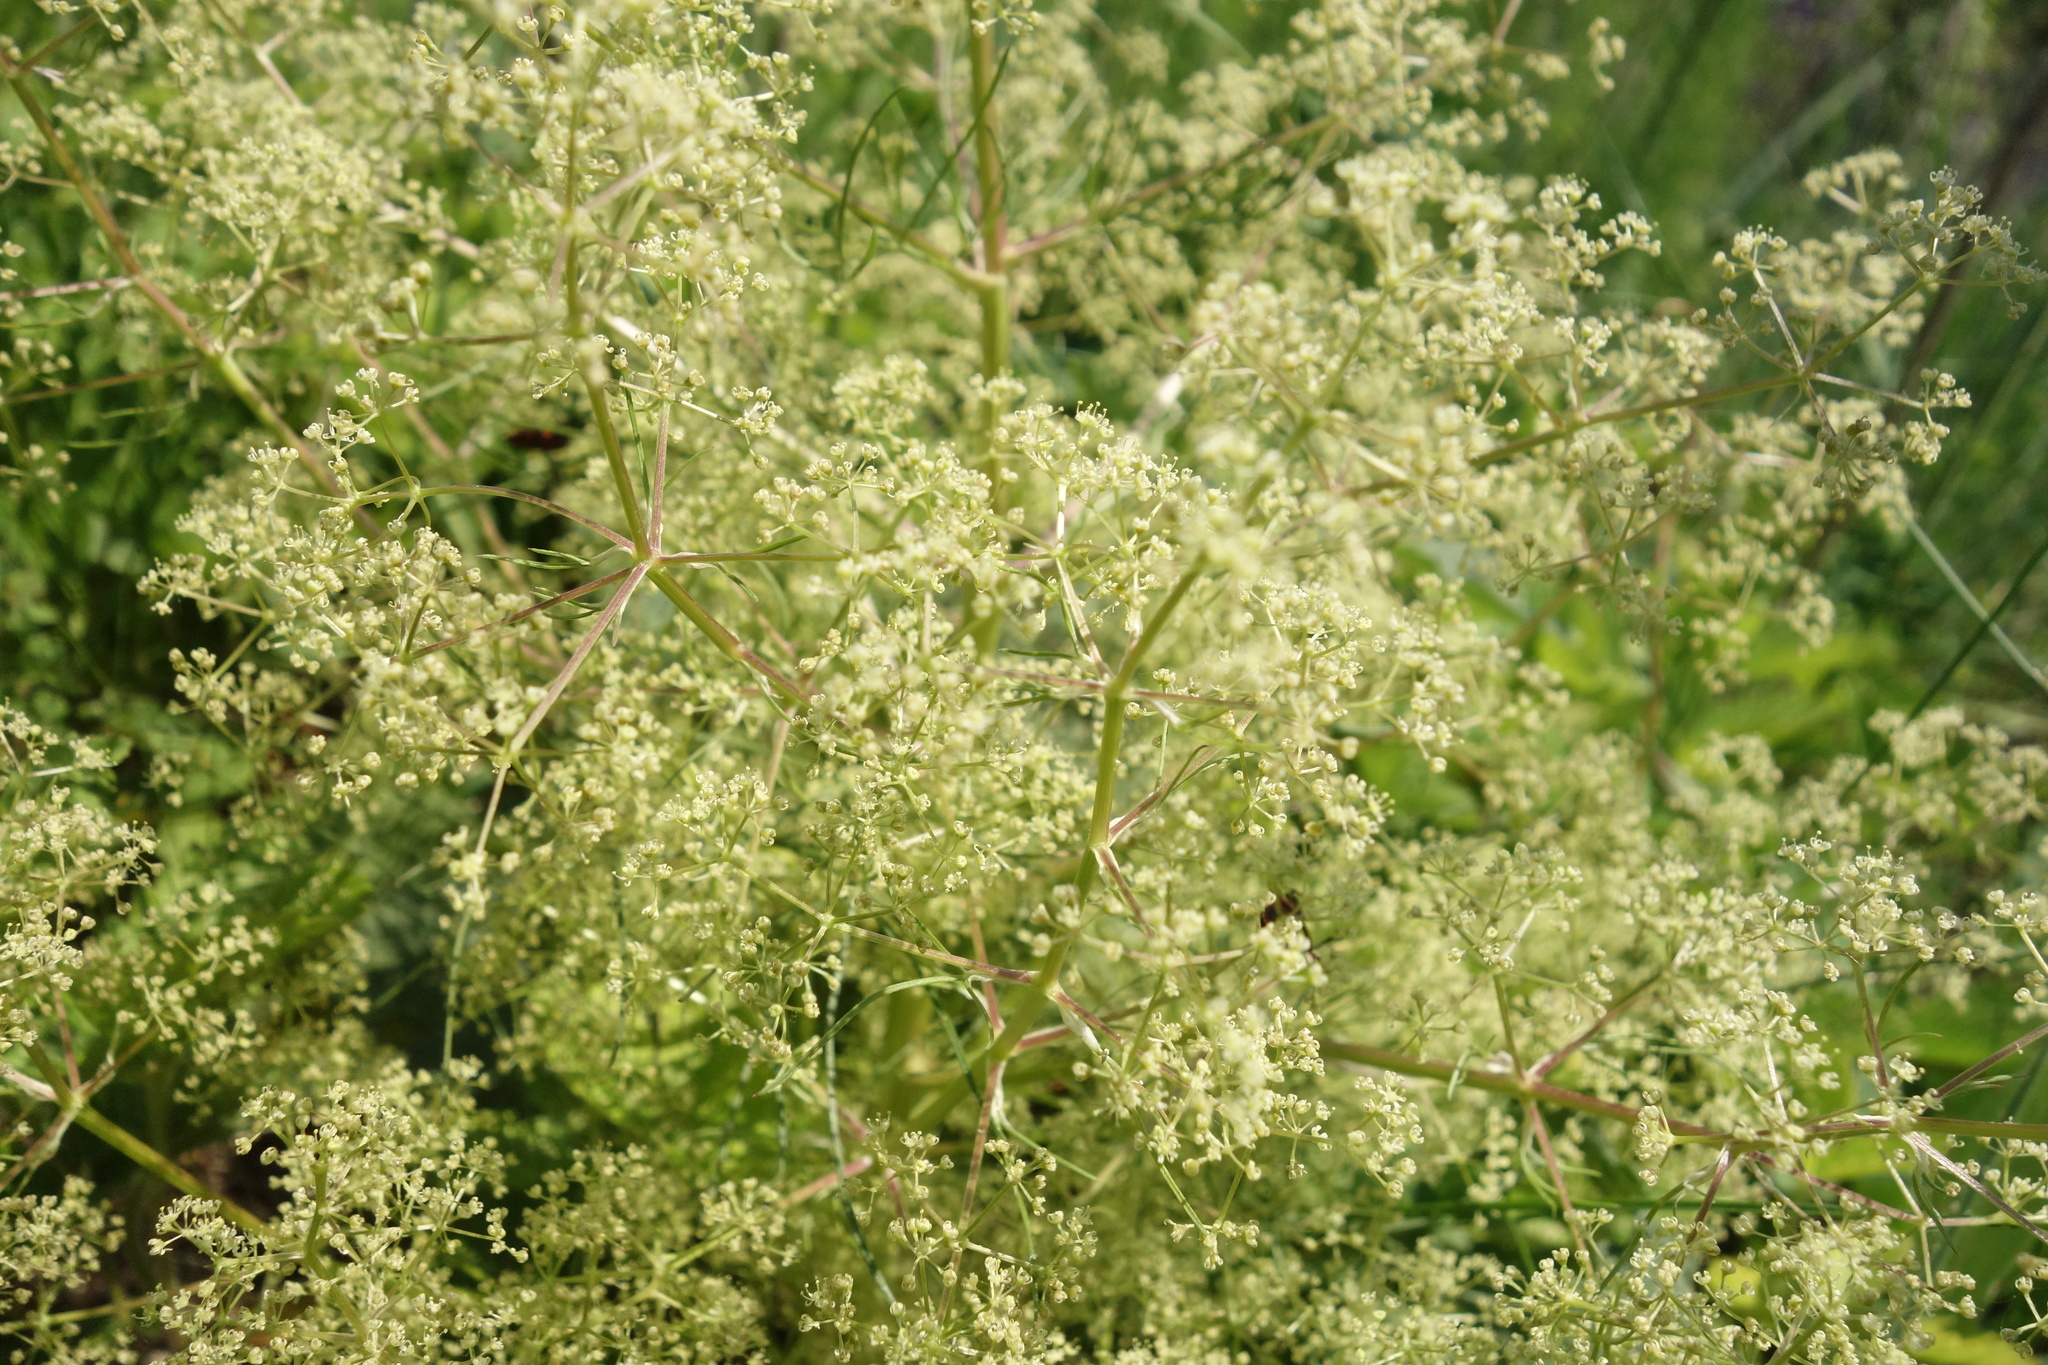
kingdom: Plantae
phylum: Tracheophyta
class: Magnoliopsida
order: Apiales
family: Apiaceae
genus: Trinia
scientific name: Trinia multicaulis
